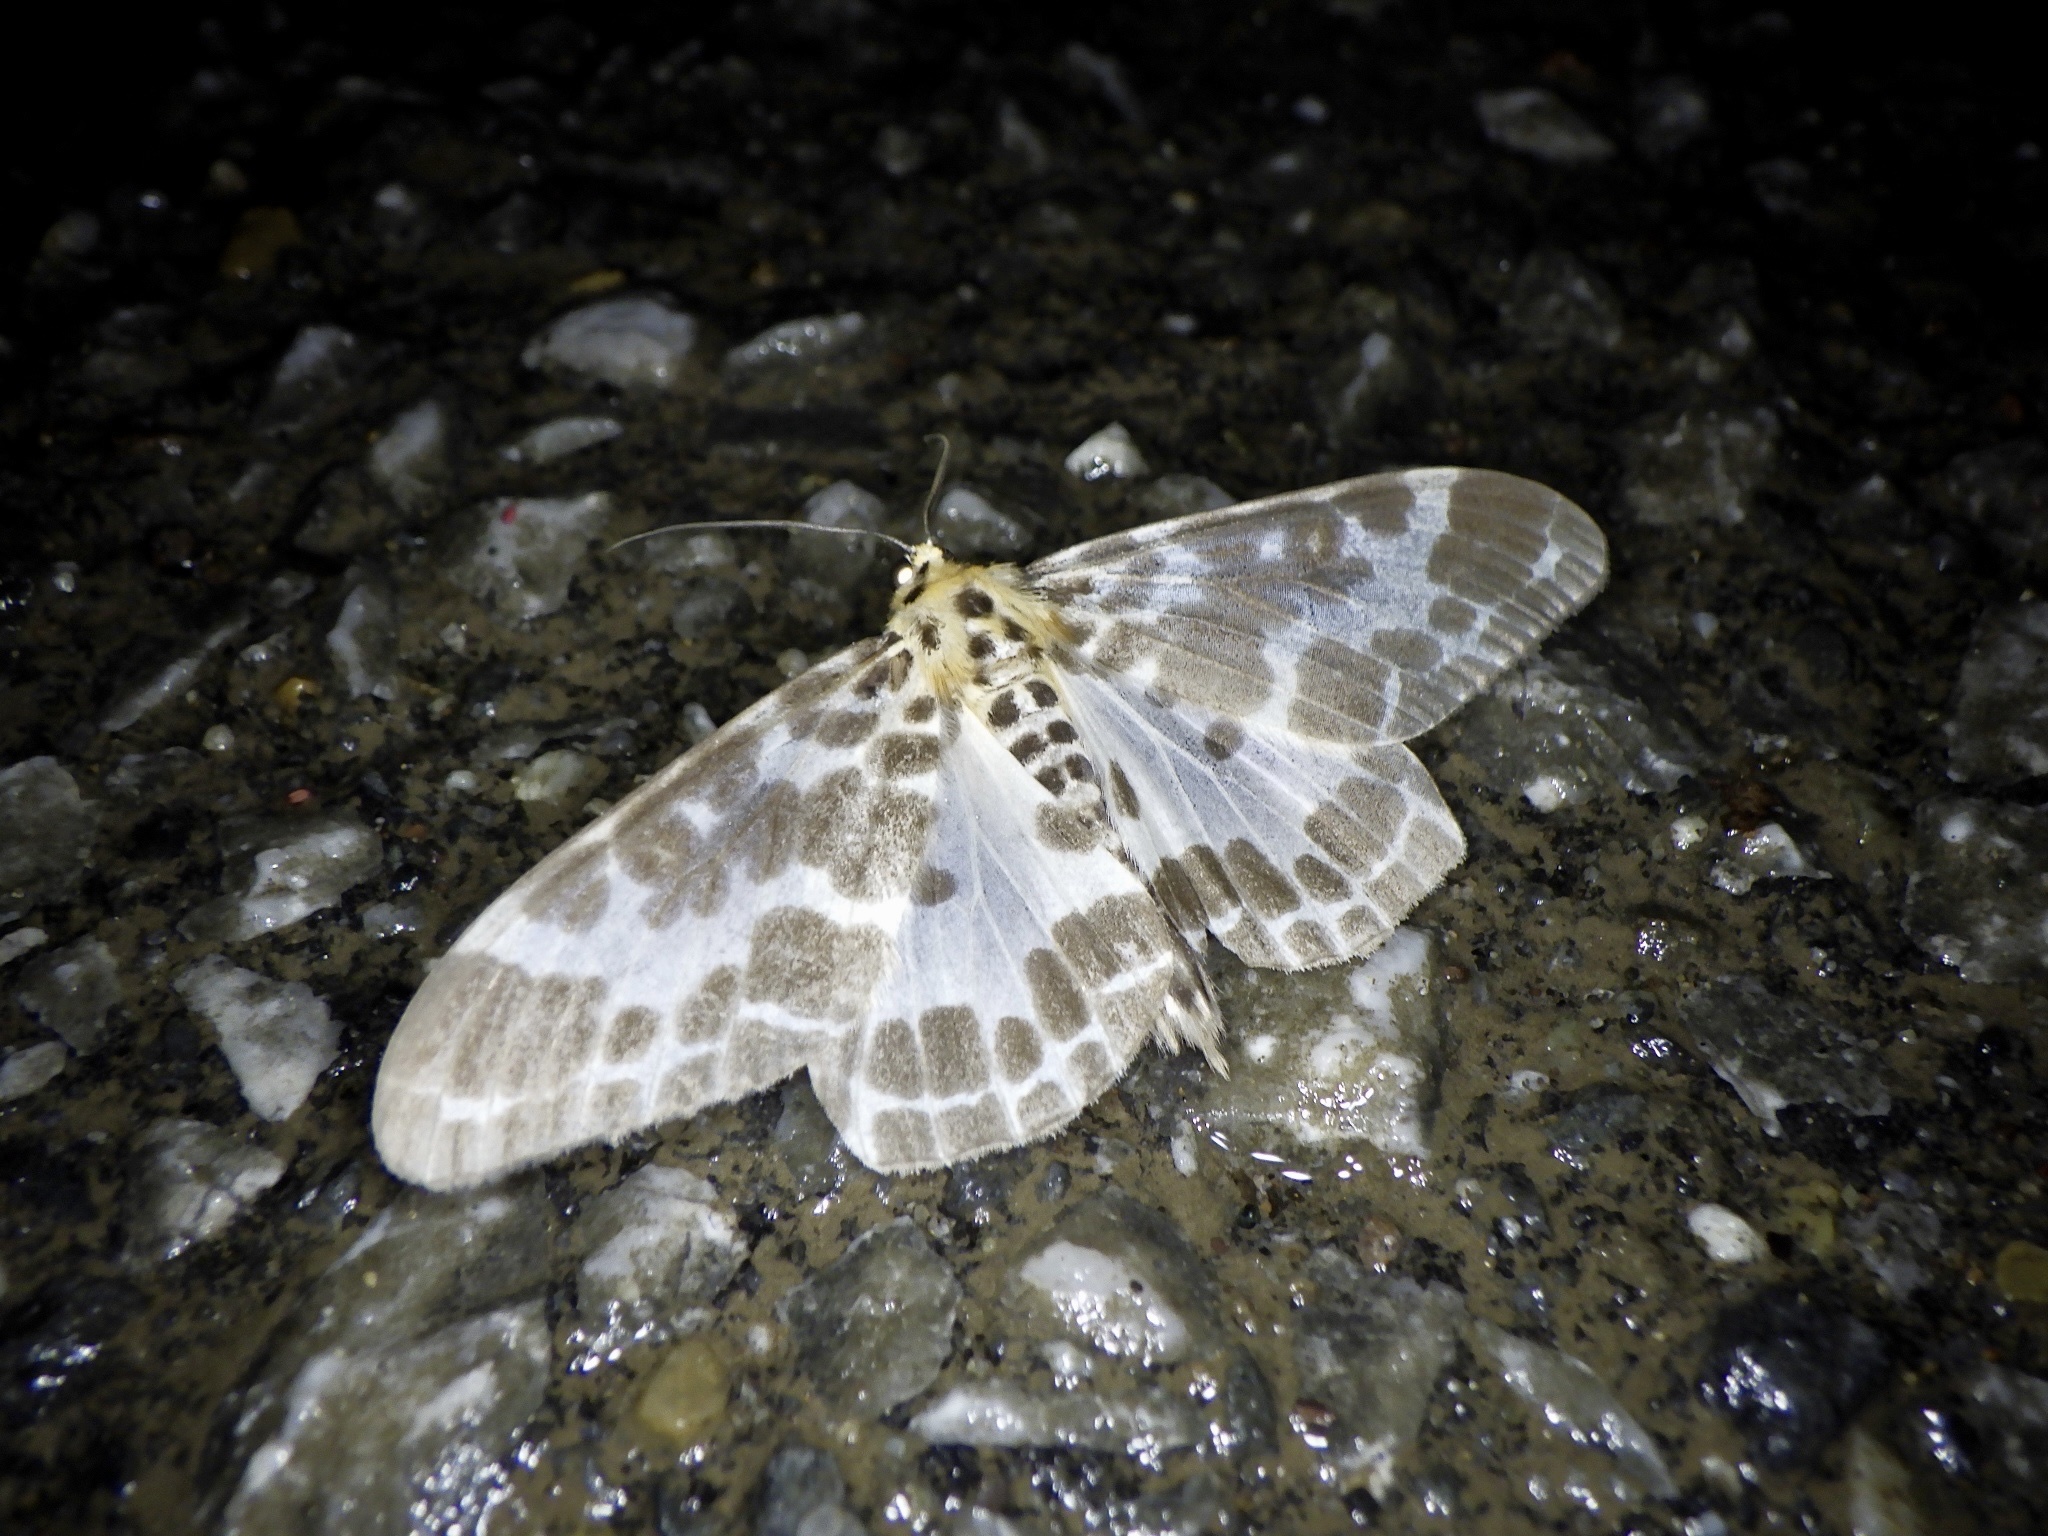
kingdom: Animalia
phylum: Arthropoda
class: Insecta
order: Lepidoptera
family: Geometridae
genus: Pogonopygia
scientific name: Pogonopygia nigralbata
